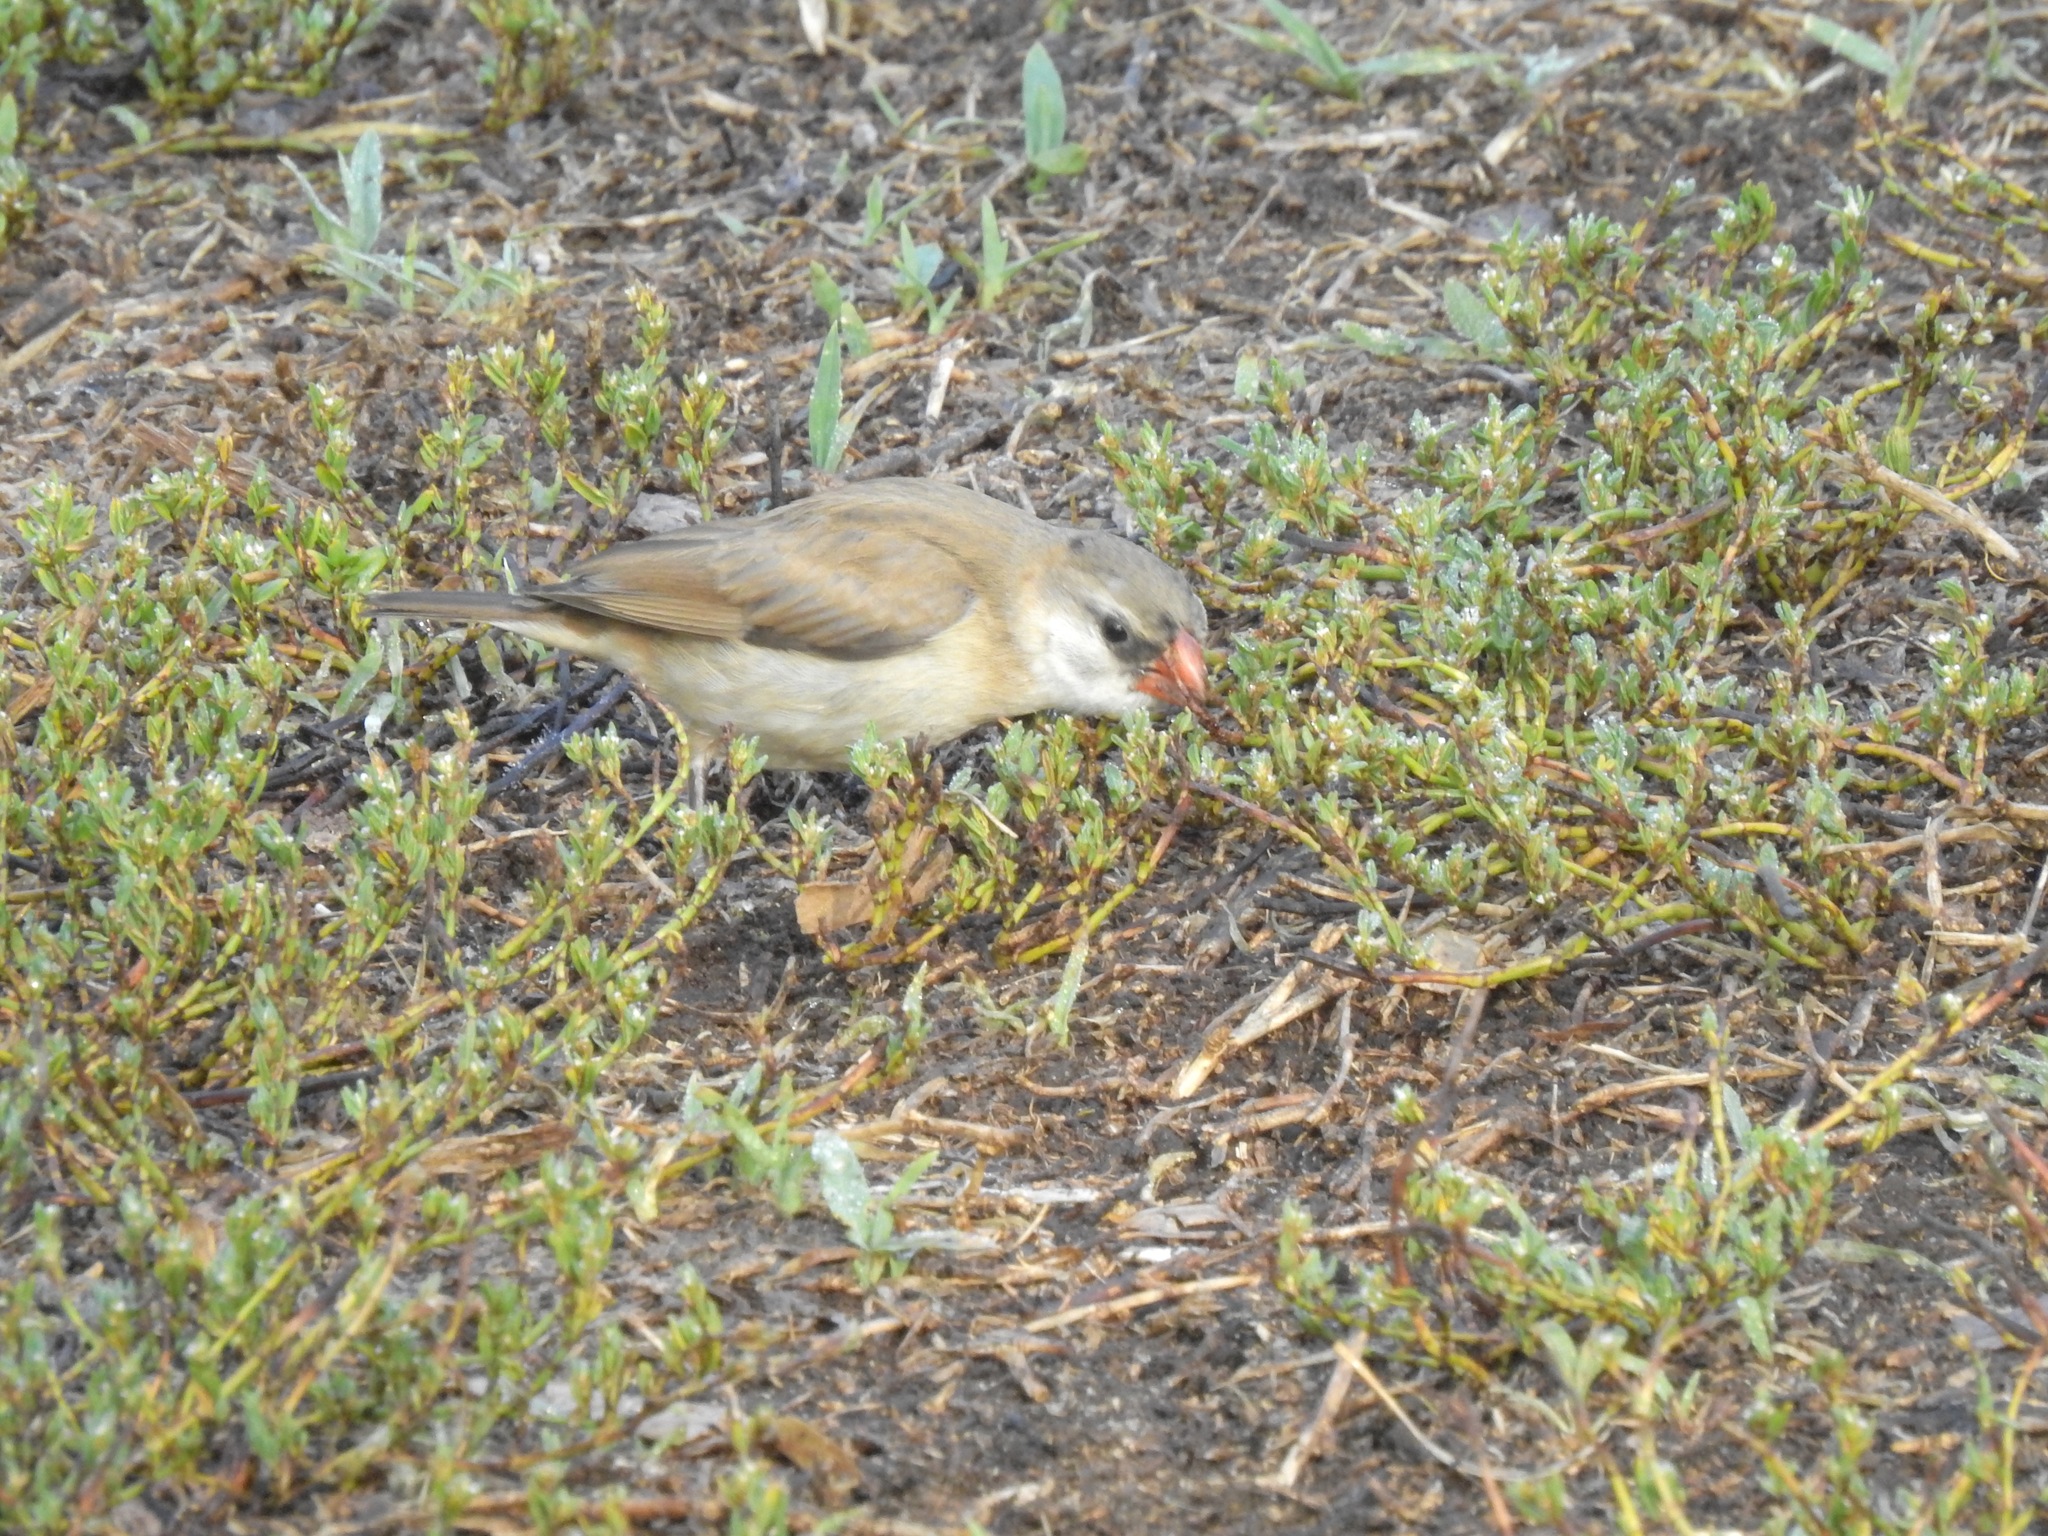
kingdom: Animalia
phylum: Chordata
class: Aves
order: Passeriformes
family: Viduidae
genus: Vidua
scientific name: Vidua macroura
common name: Pin-tailed whydah
